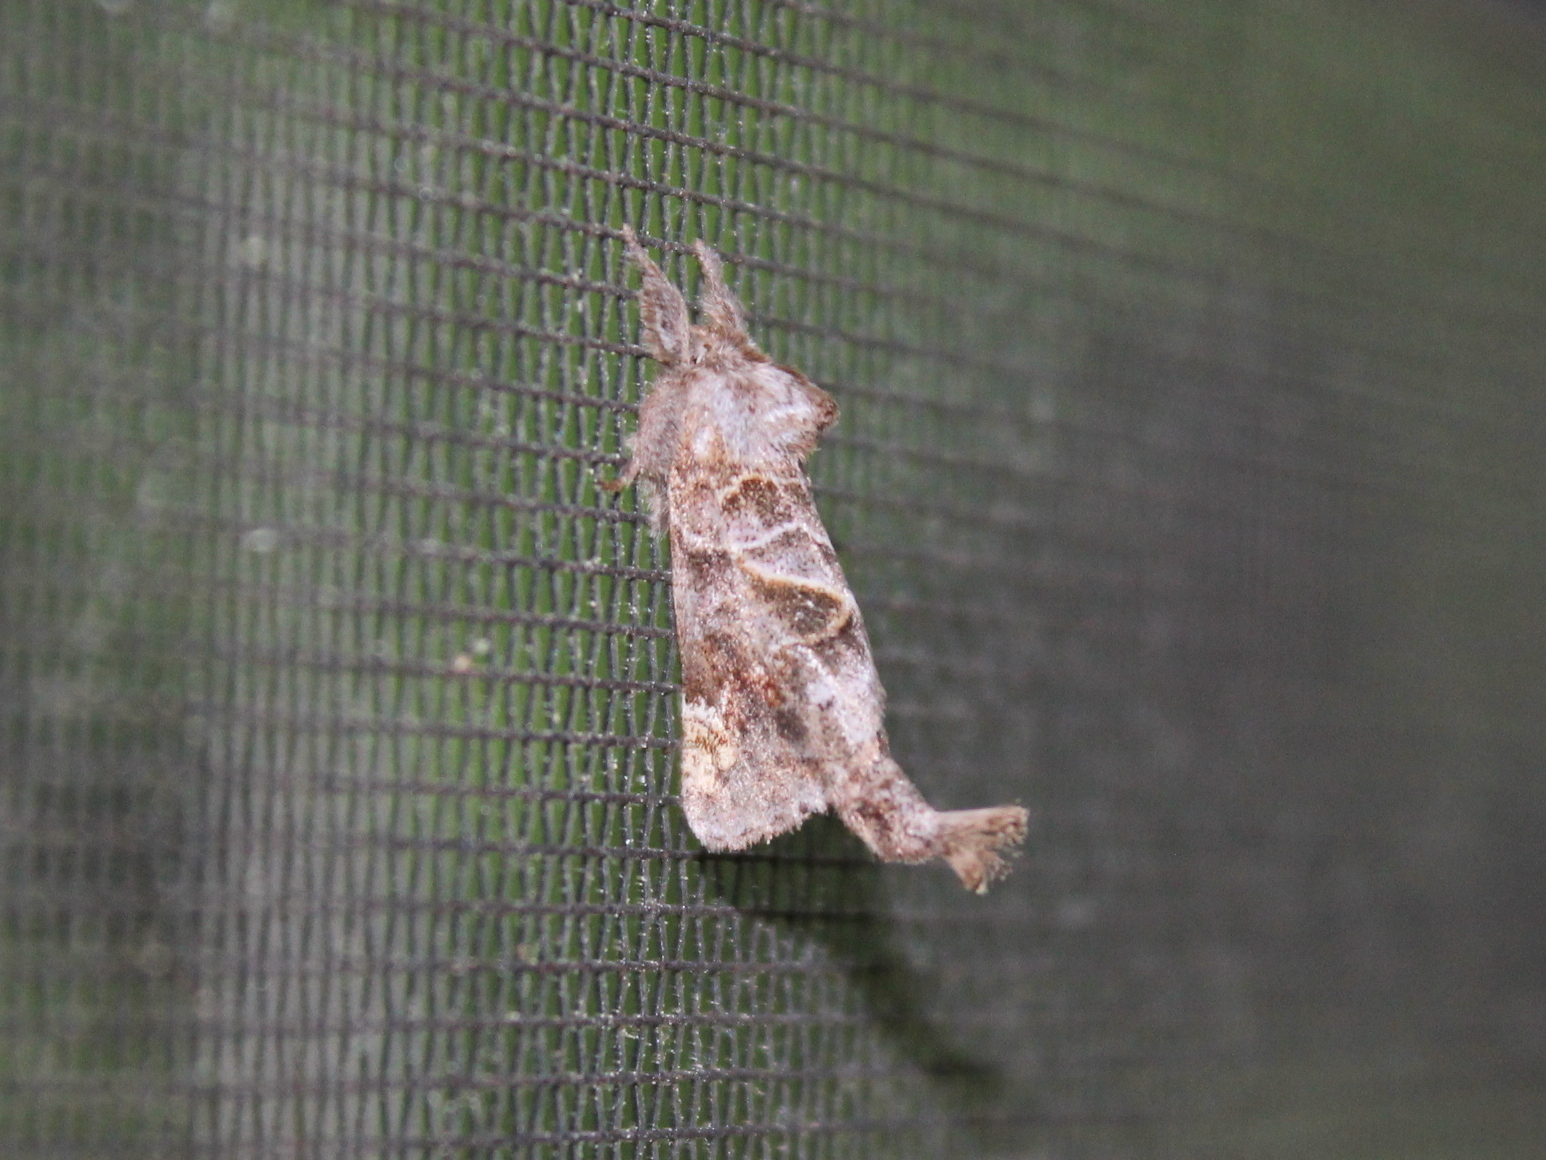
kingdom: Animalia
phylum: Arthropoda
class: Insecta
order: Lepidoptera
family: Notodontidae
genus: Clostera
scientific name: Clostera strigosa
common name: Striped chocolate-tip moth
